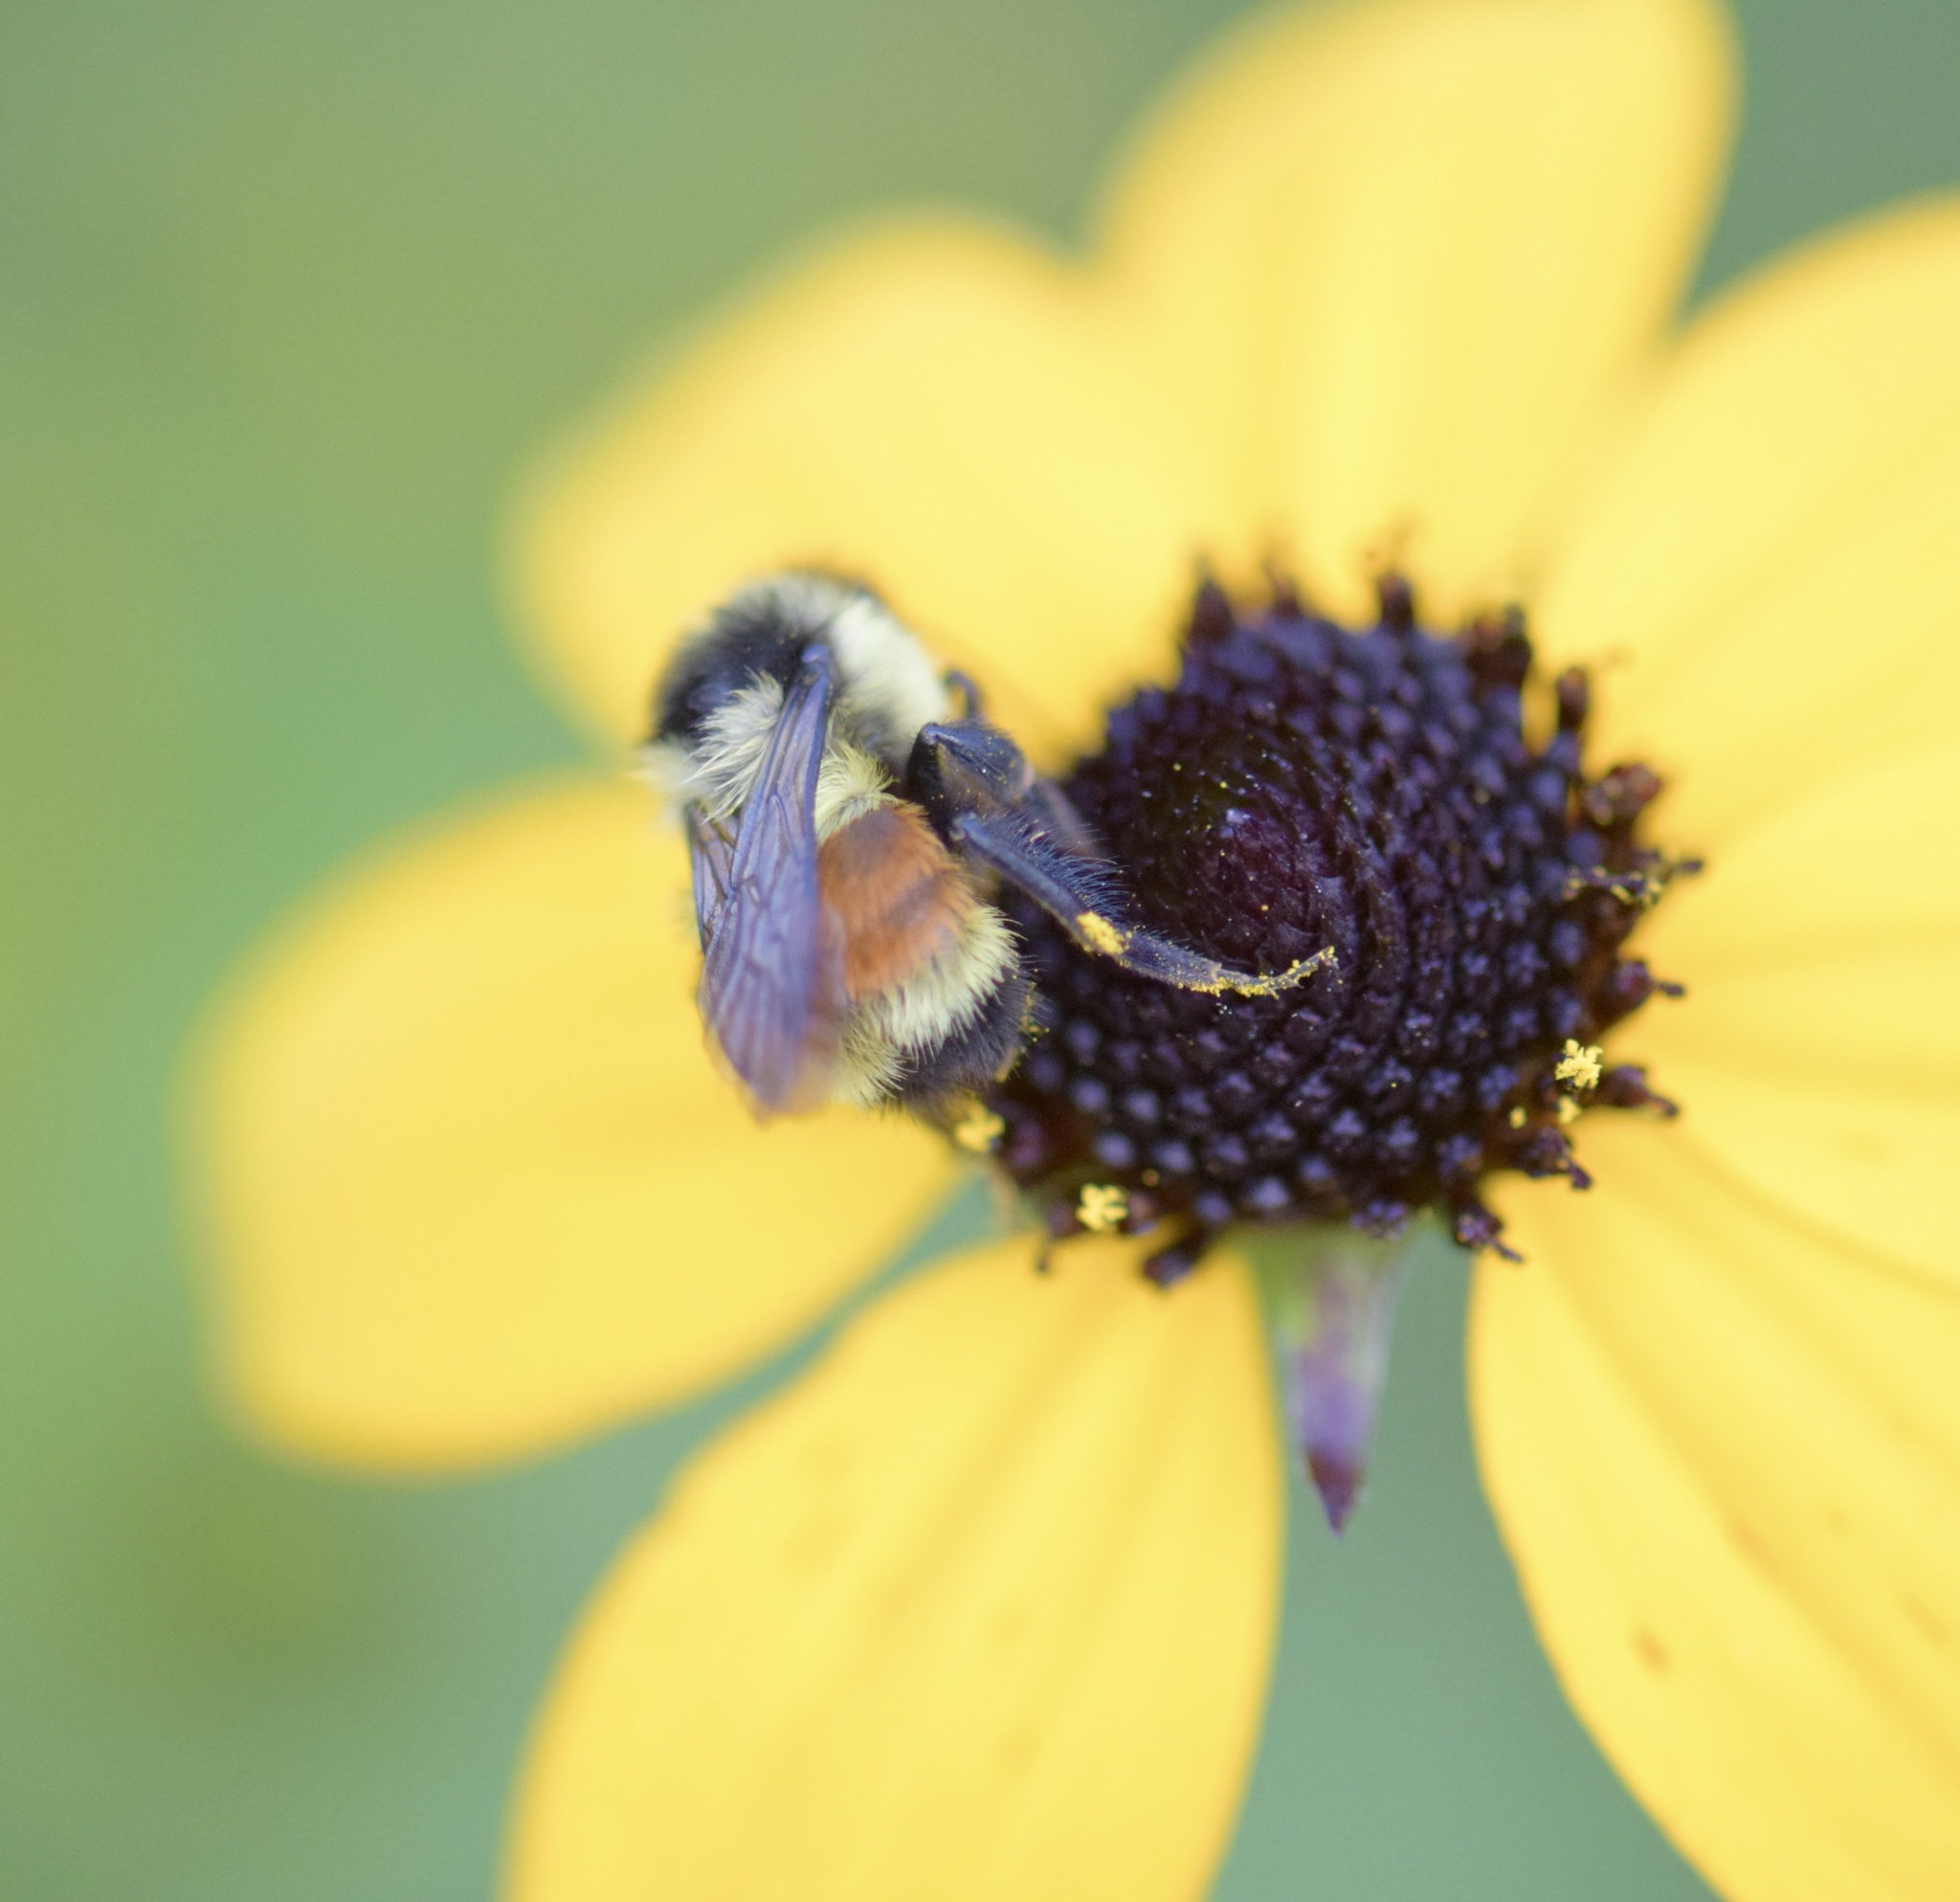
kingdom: Animalia
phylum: Arthropoda
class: Insecta
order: Hymenoptera
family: Apidae
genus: Bombus
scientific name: Bombus ternarius
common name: Tri-colored bumble bee
